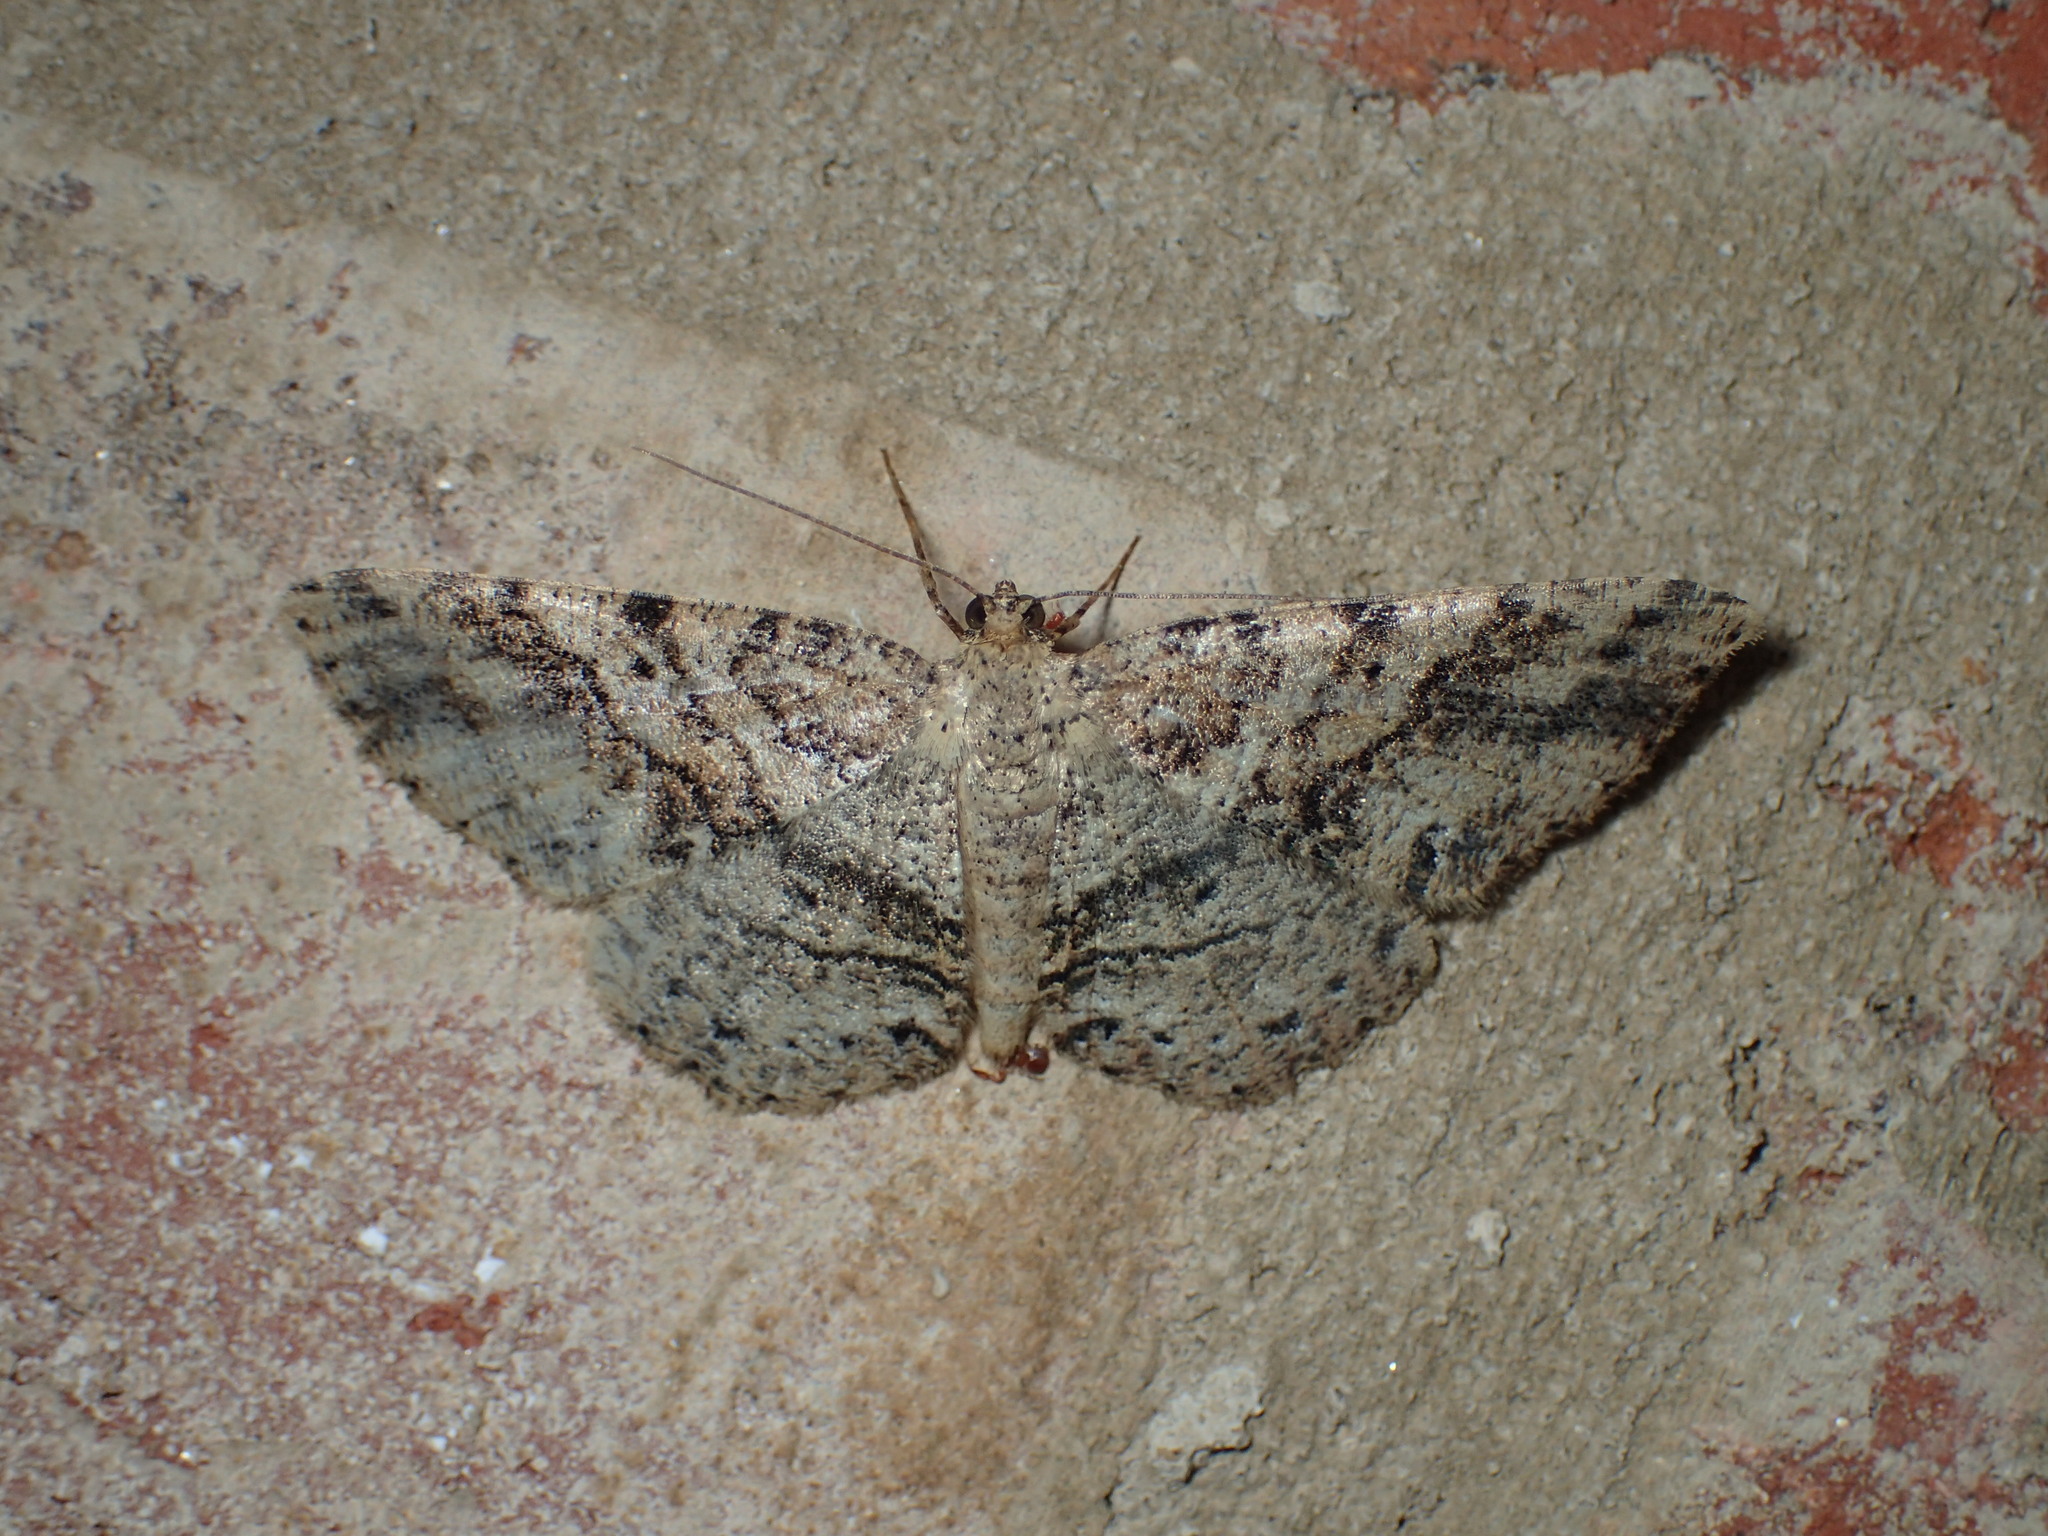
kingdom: Animalia
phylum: Arthropoda
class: Insecta
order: Lepidoptera
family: Geometridae
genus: Melanolophia
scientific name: Melanolophia signataria
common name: Signate melanolophia
